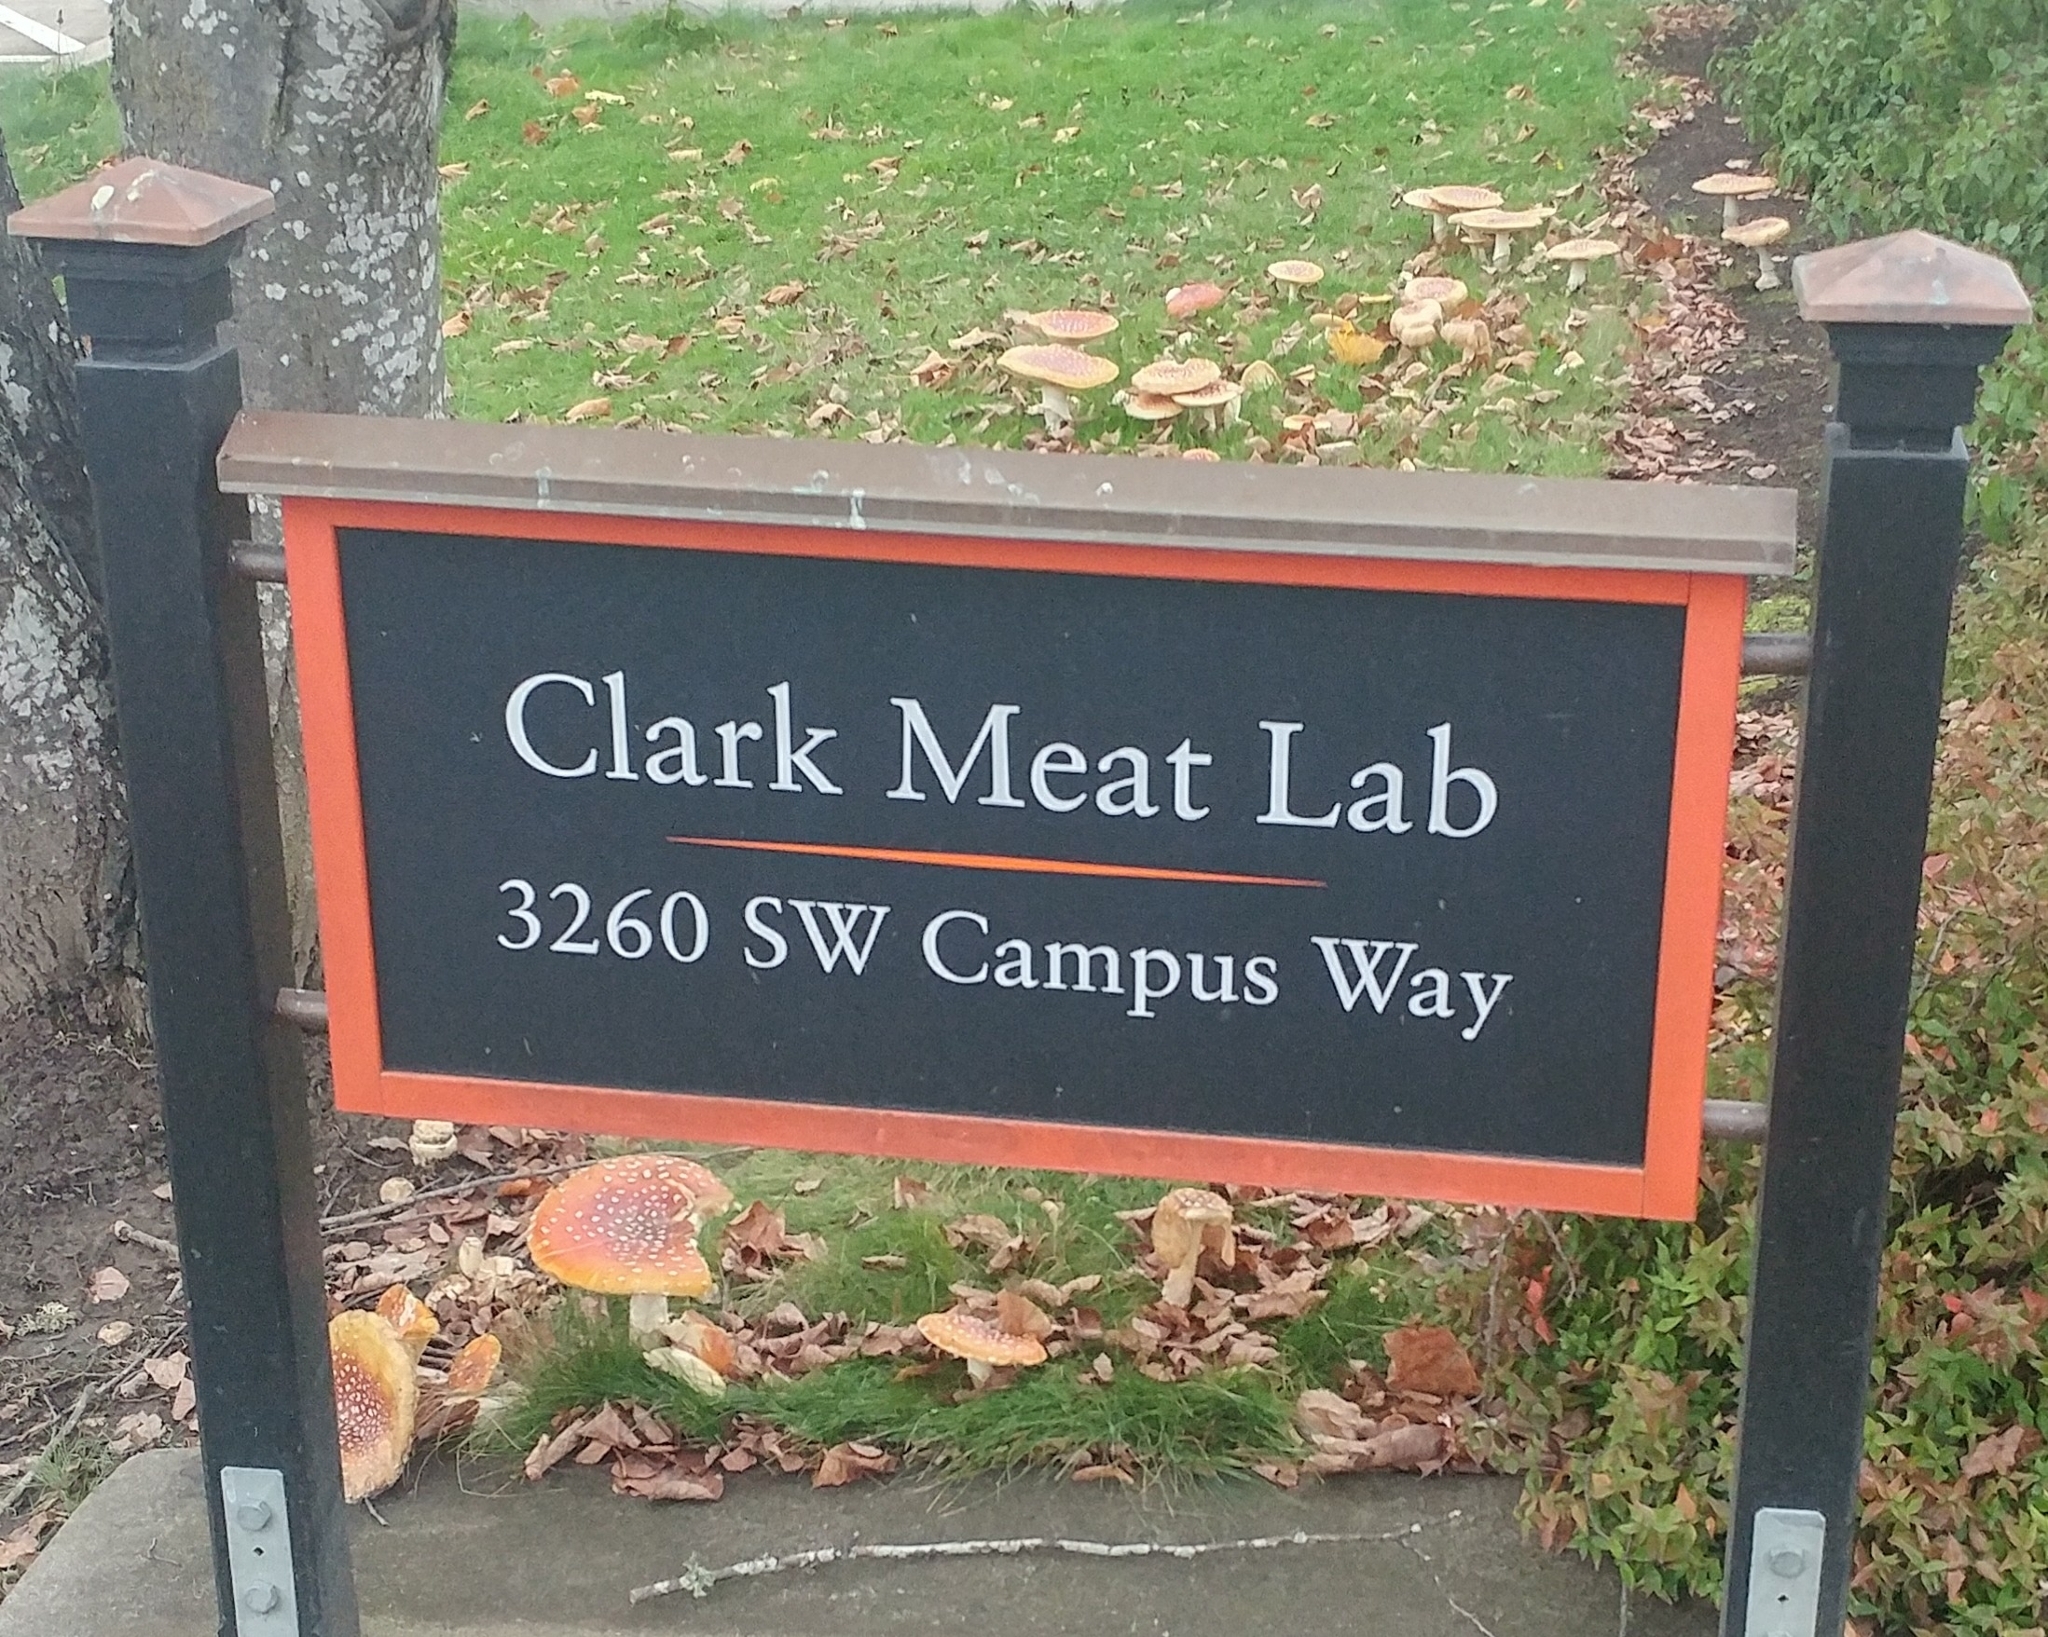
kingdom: Fungi
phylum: Basidiomycota
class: Agaricomycetes
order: Agaricales
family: Amanitaceae
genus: Amanita
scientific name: Amanita muscaria
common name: Fly agaric
